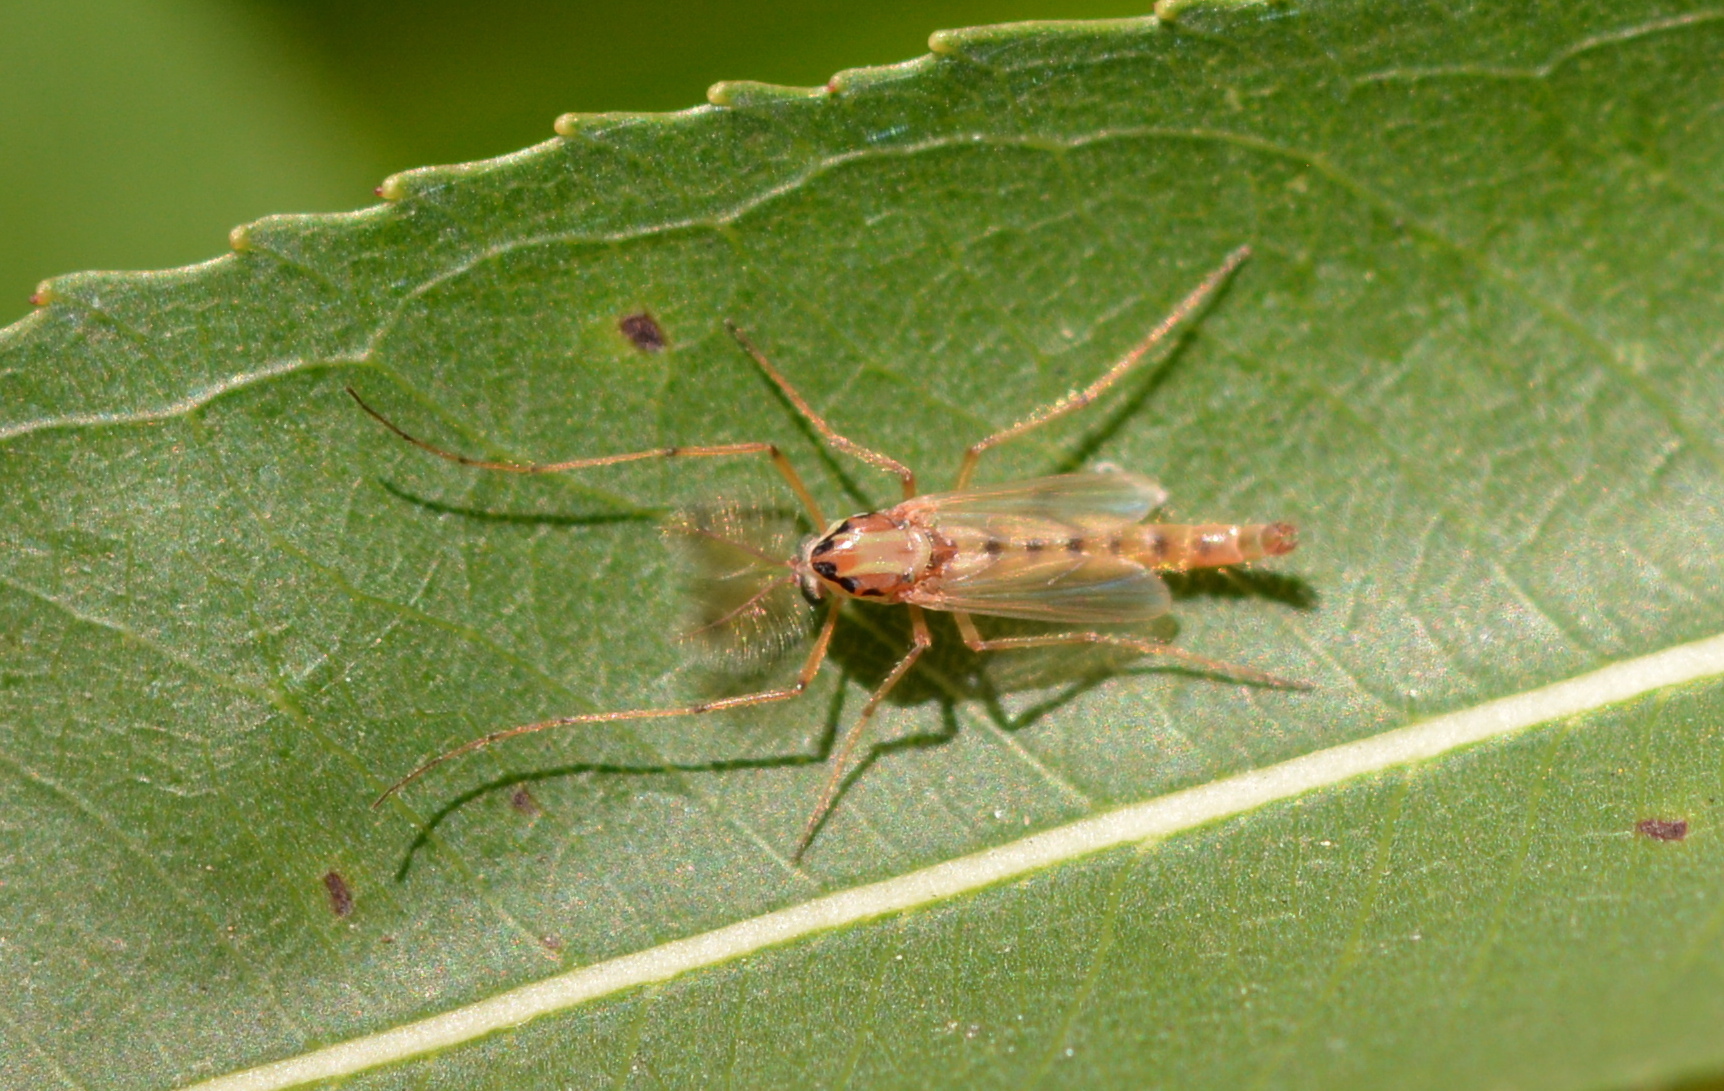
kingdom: Animalia
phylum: Arthropoda
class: Insecta
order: Diptera
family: Chironomidae
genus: Goeldichironomus
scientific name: Goeldichironomus carus
